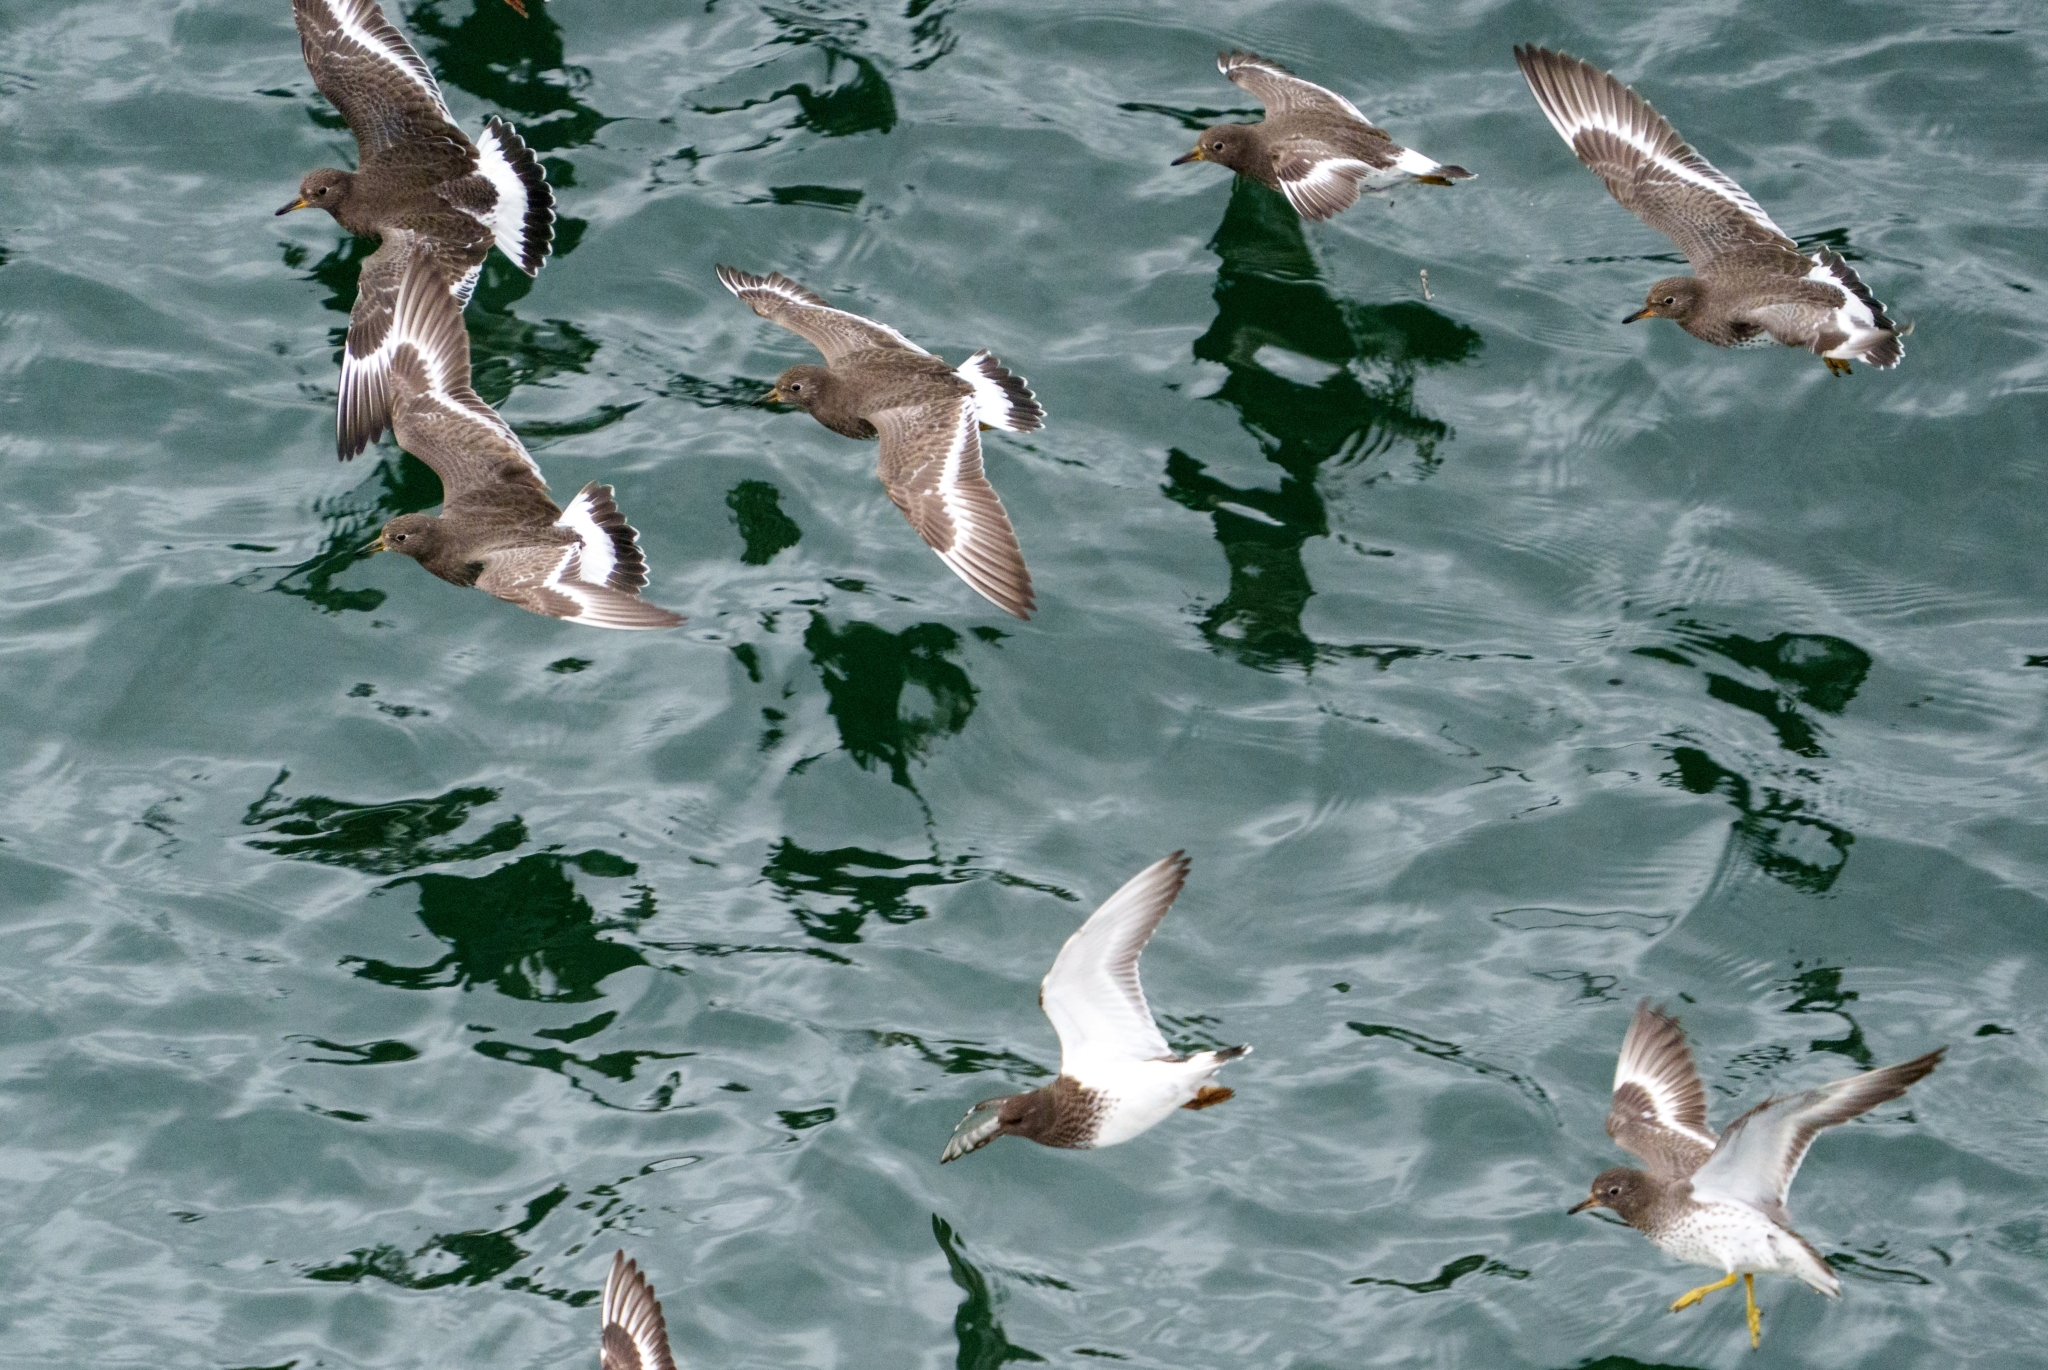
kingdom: Animalia
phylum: Chordata
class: Aves
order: Charadriiformes
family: Scolopacidae
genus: Calidris
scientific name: Calidris virgata
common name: Surfbird
